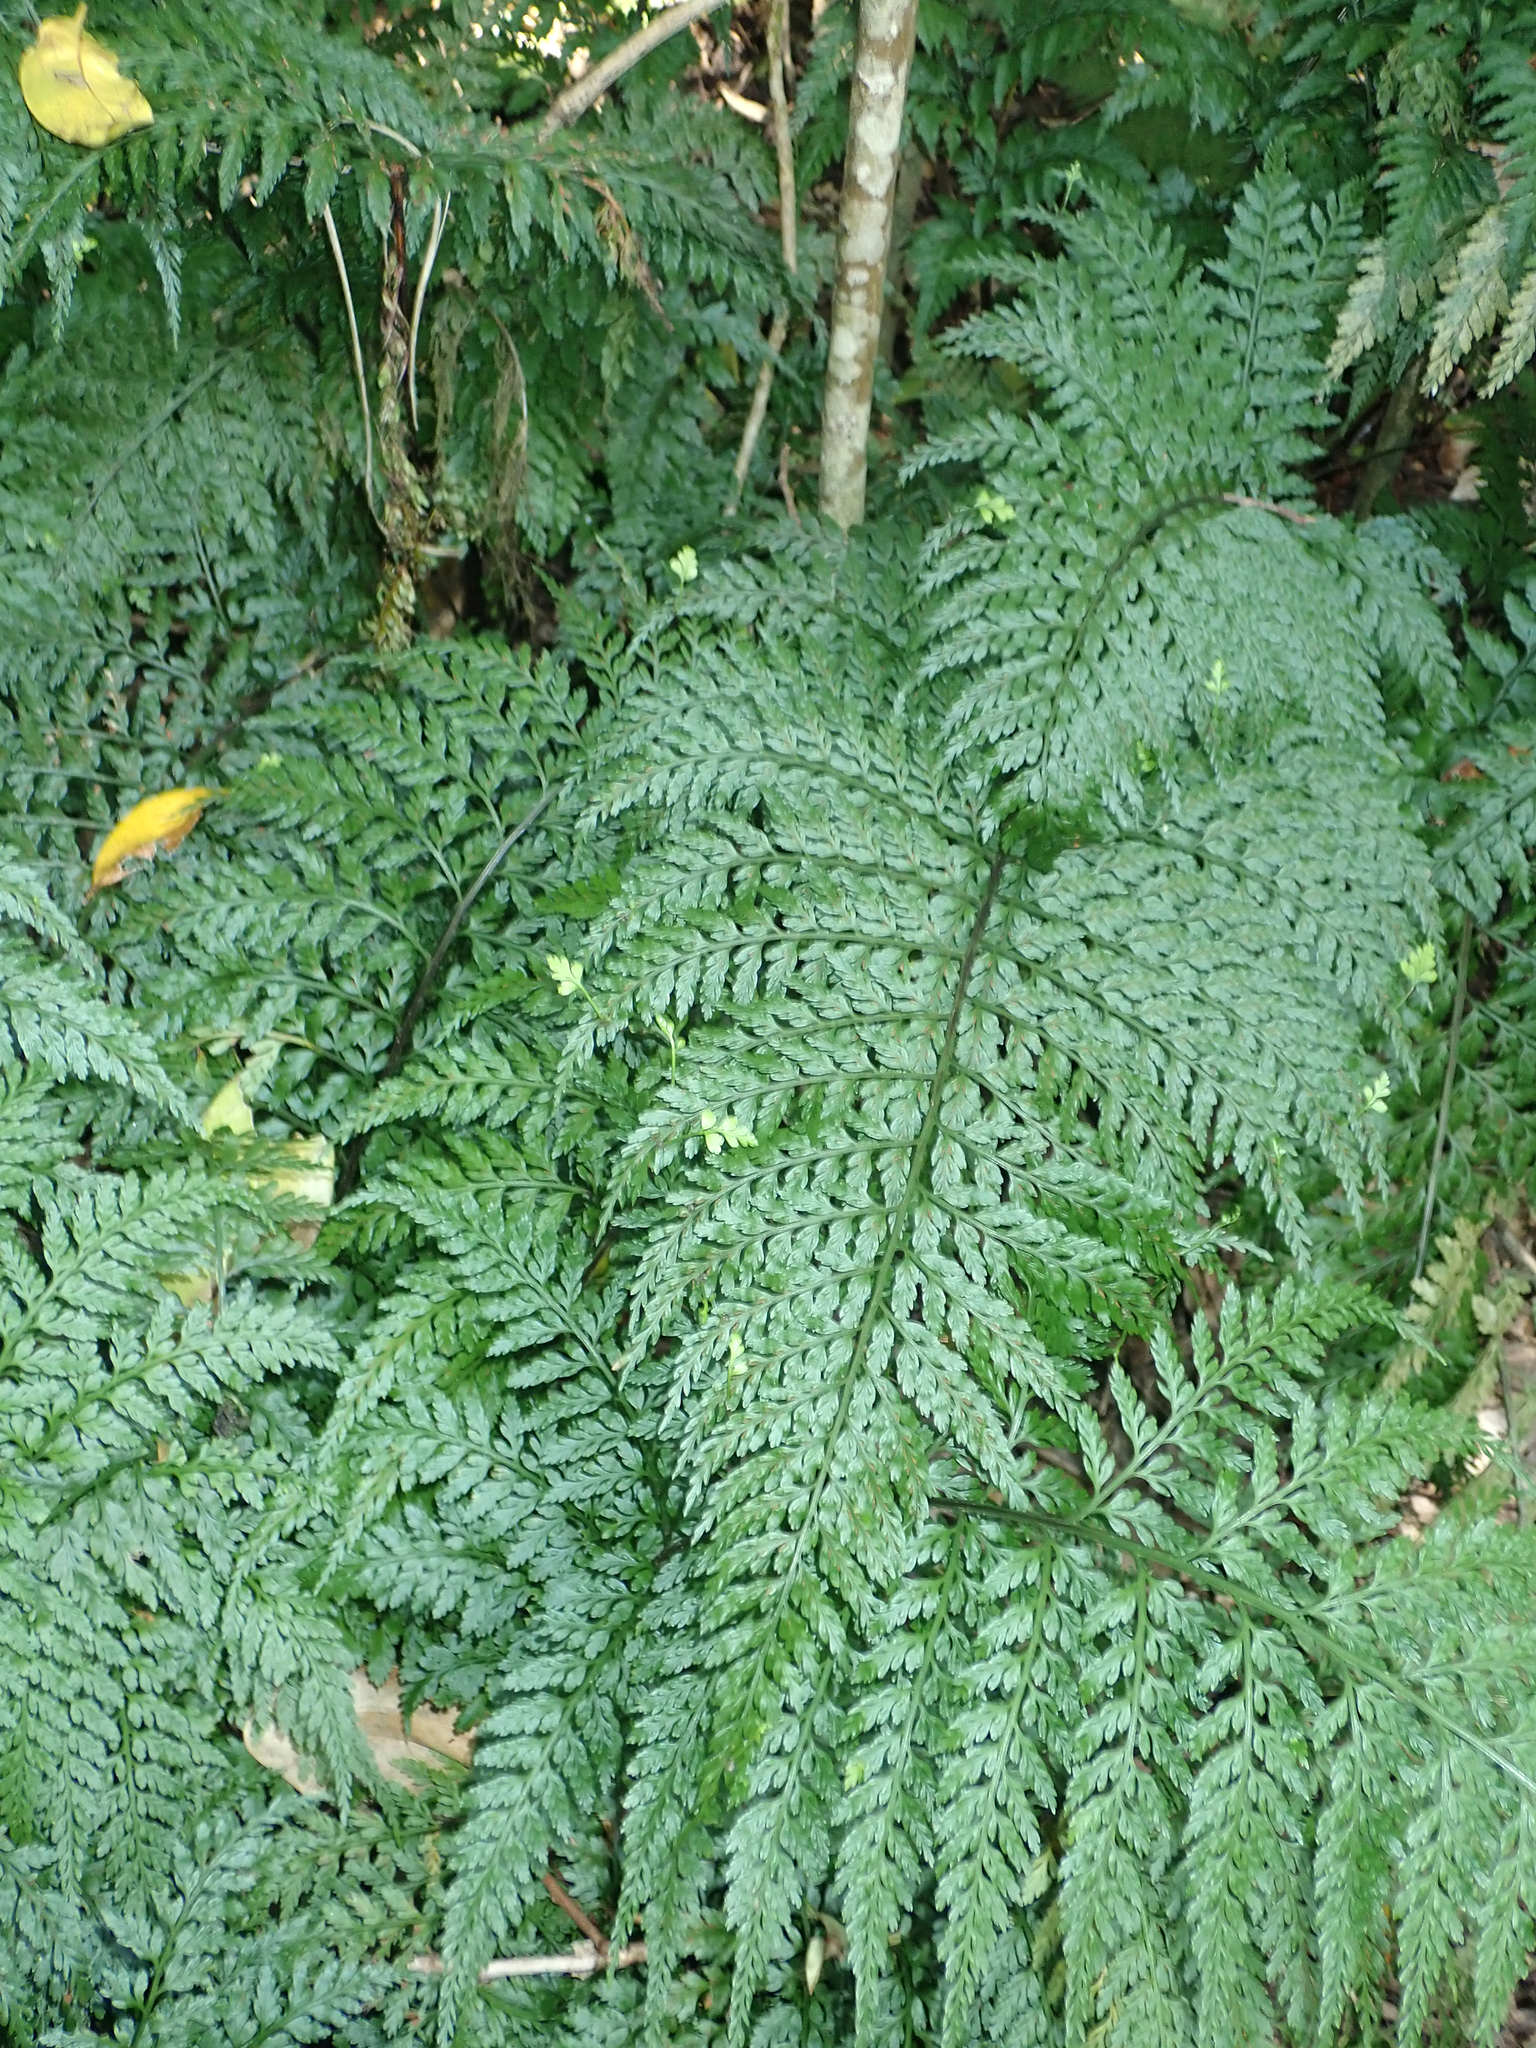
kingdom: Plantae
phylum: Tracheophyta
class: Polypodiopsida
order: Polypodiales
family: Aspleniaceae
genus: Asplenium
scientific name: Asplenium
